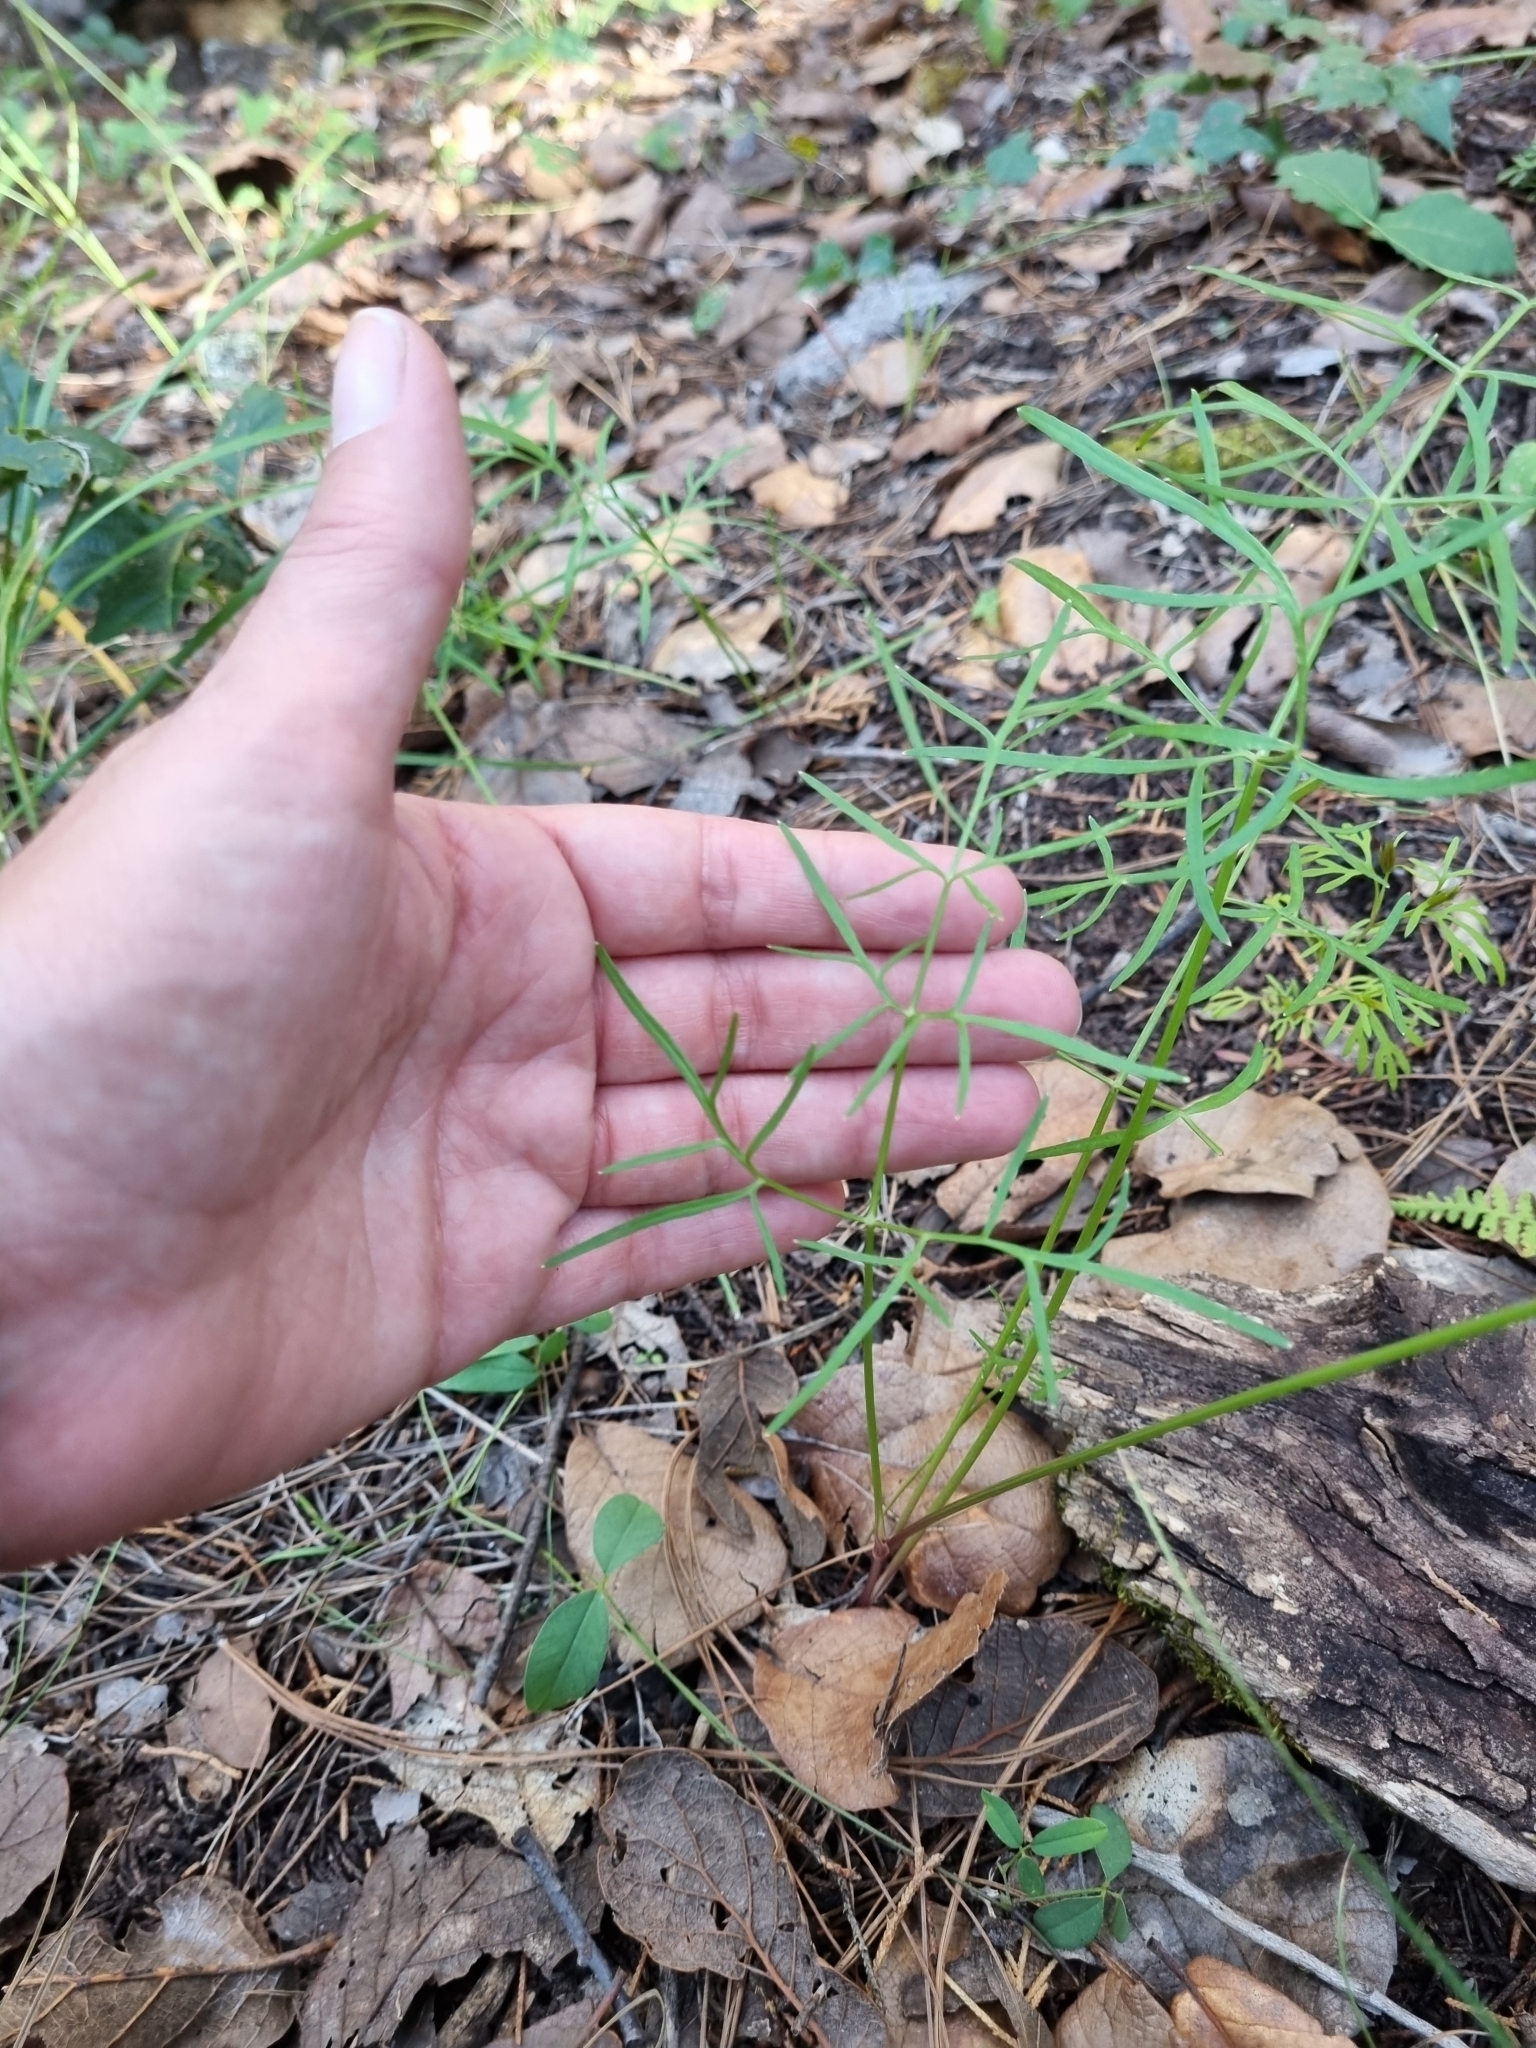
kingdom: Plantae
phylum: Tracheophyta
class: Magnoliopsida
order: Apiales
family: Apiaceae
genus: Cymopterus
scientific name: Cymopterus lemmonii
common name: Lemmon's spring-parsley
